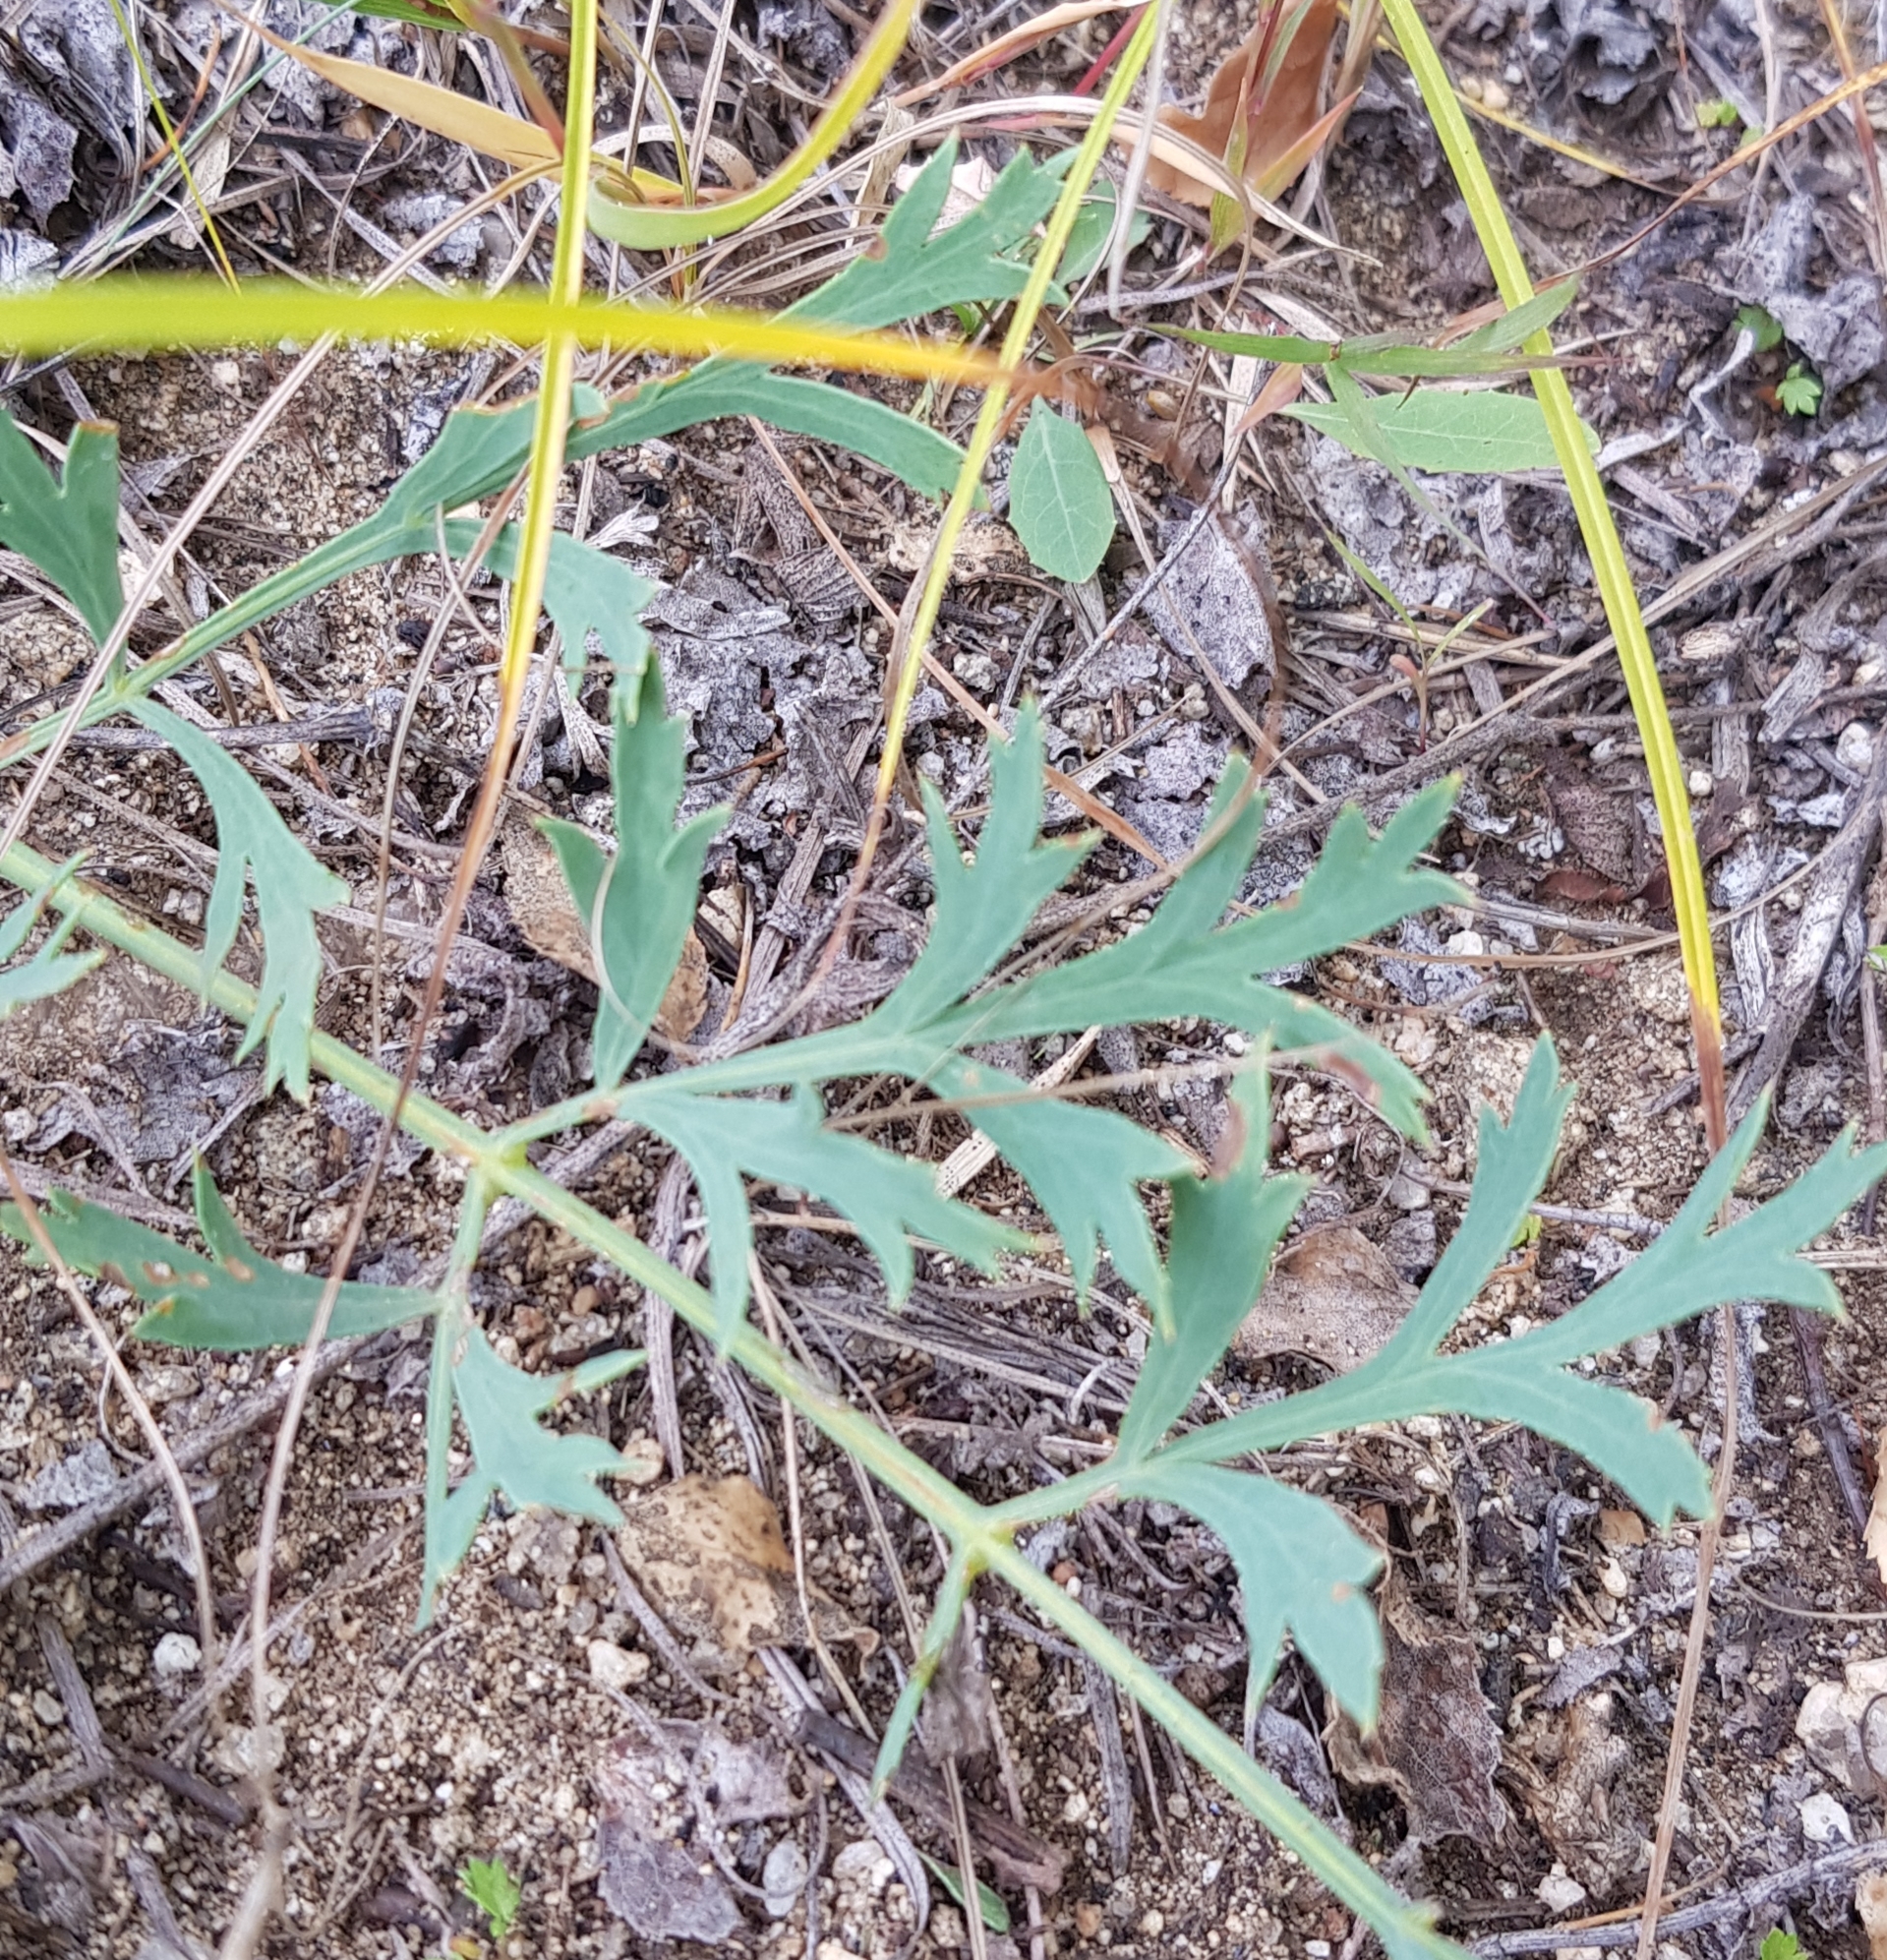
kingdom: Plantae
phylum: Tracheophyta
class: Magnoliopsida
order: Apiales
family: Apiaceae
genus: Saposhnikovia
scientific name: Saposhnikovia divaricata
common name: Siler
